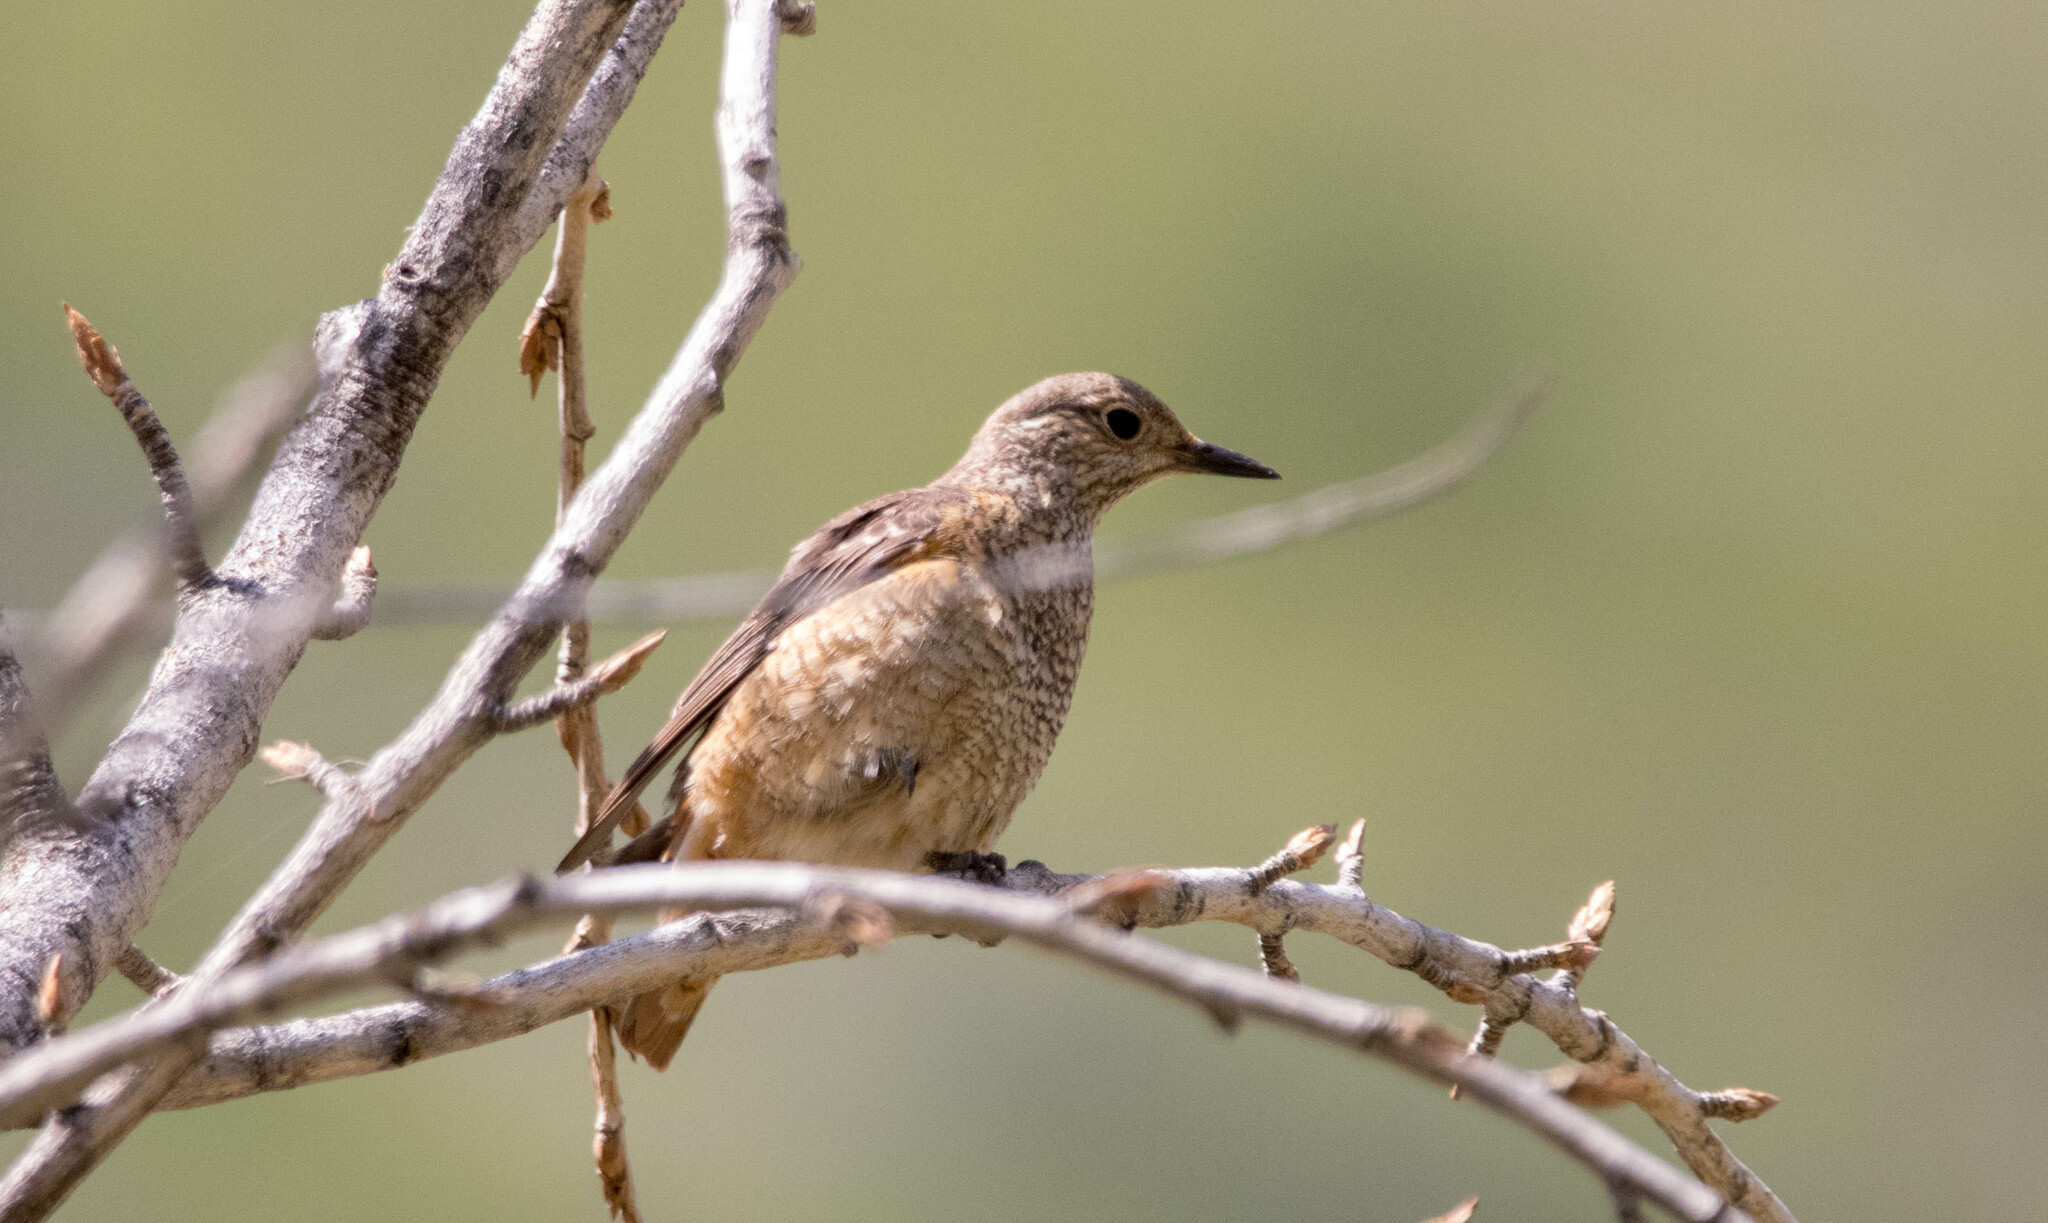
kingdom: Animalia
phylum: Chordata
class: Aves
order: Passeriformes
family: Muscicapidae
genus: Monticola
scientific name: Monticola saxatilis
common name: Rufous-tailed rock thrush
